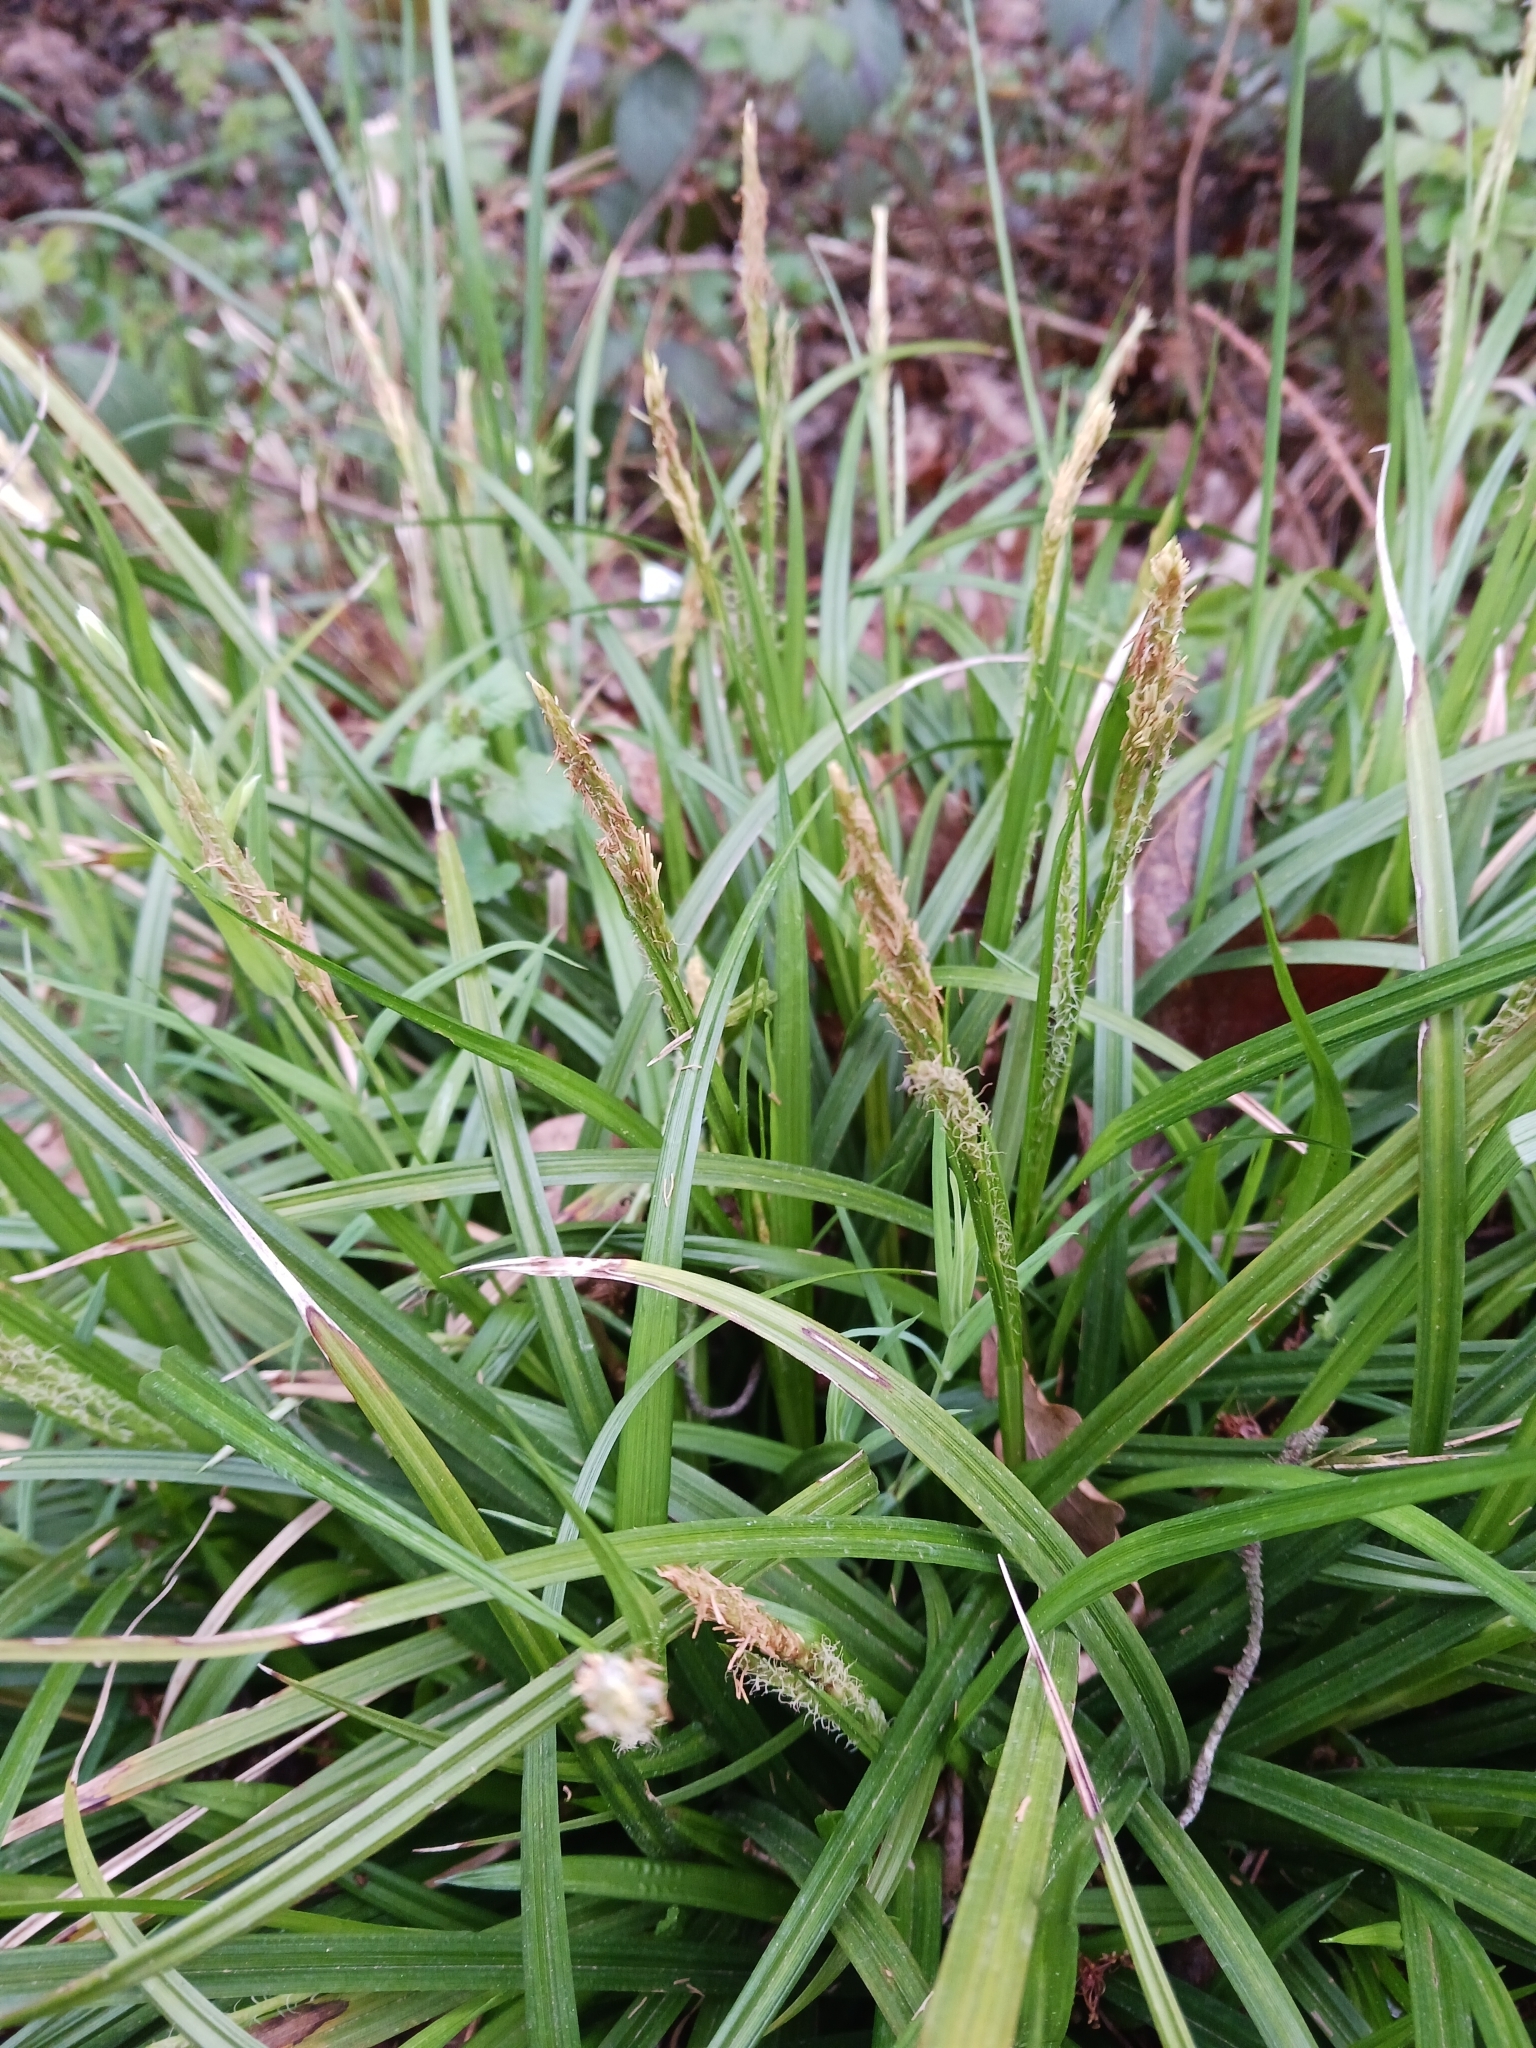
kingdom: Plantae
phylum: Tracheophyta
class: Liliopsida
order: Poales
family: Cyperaceae
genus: Carex
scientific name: Carex sylvatica
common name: Wood-sedge
